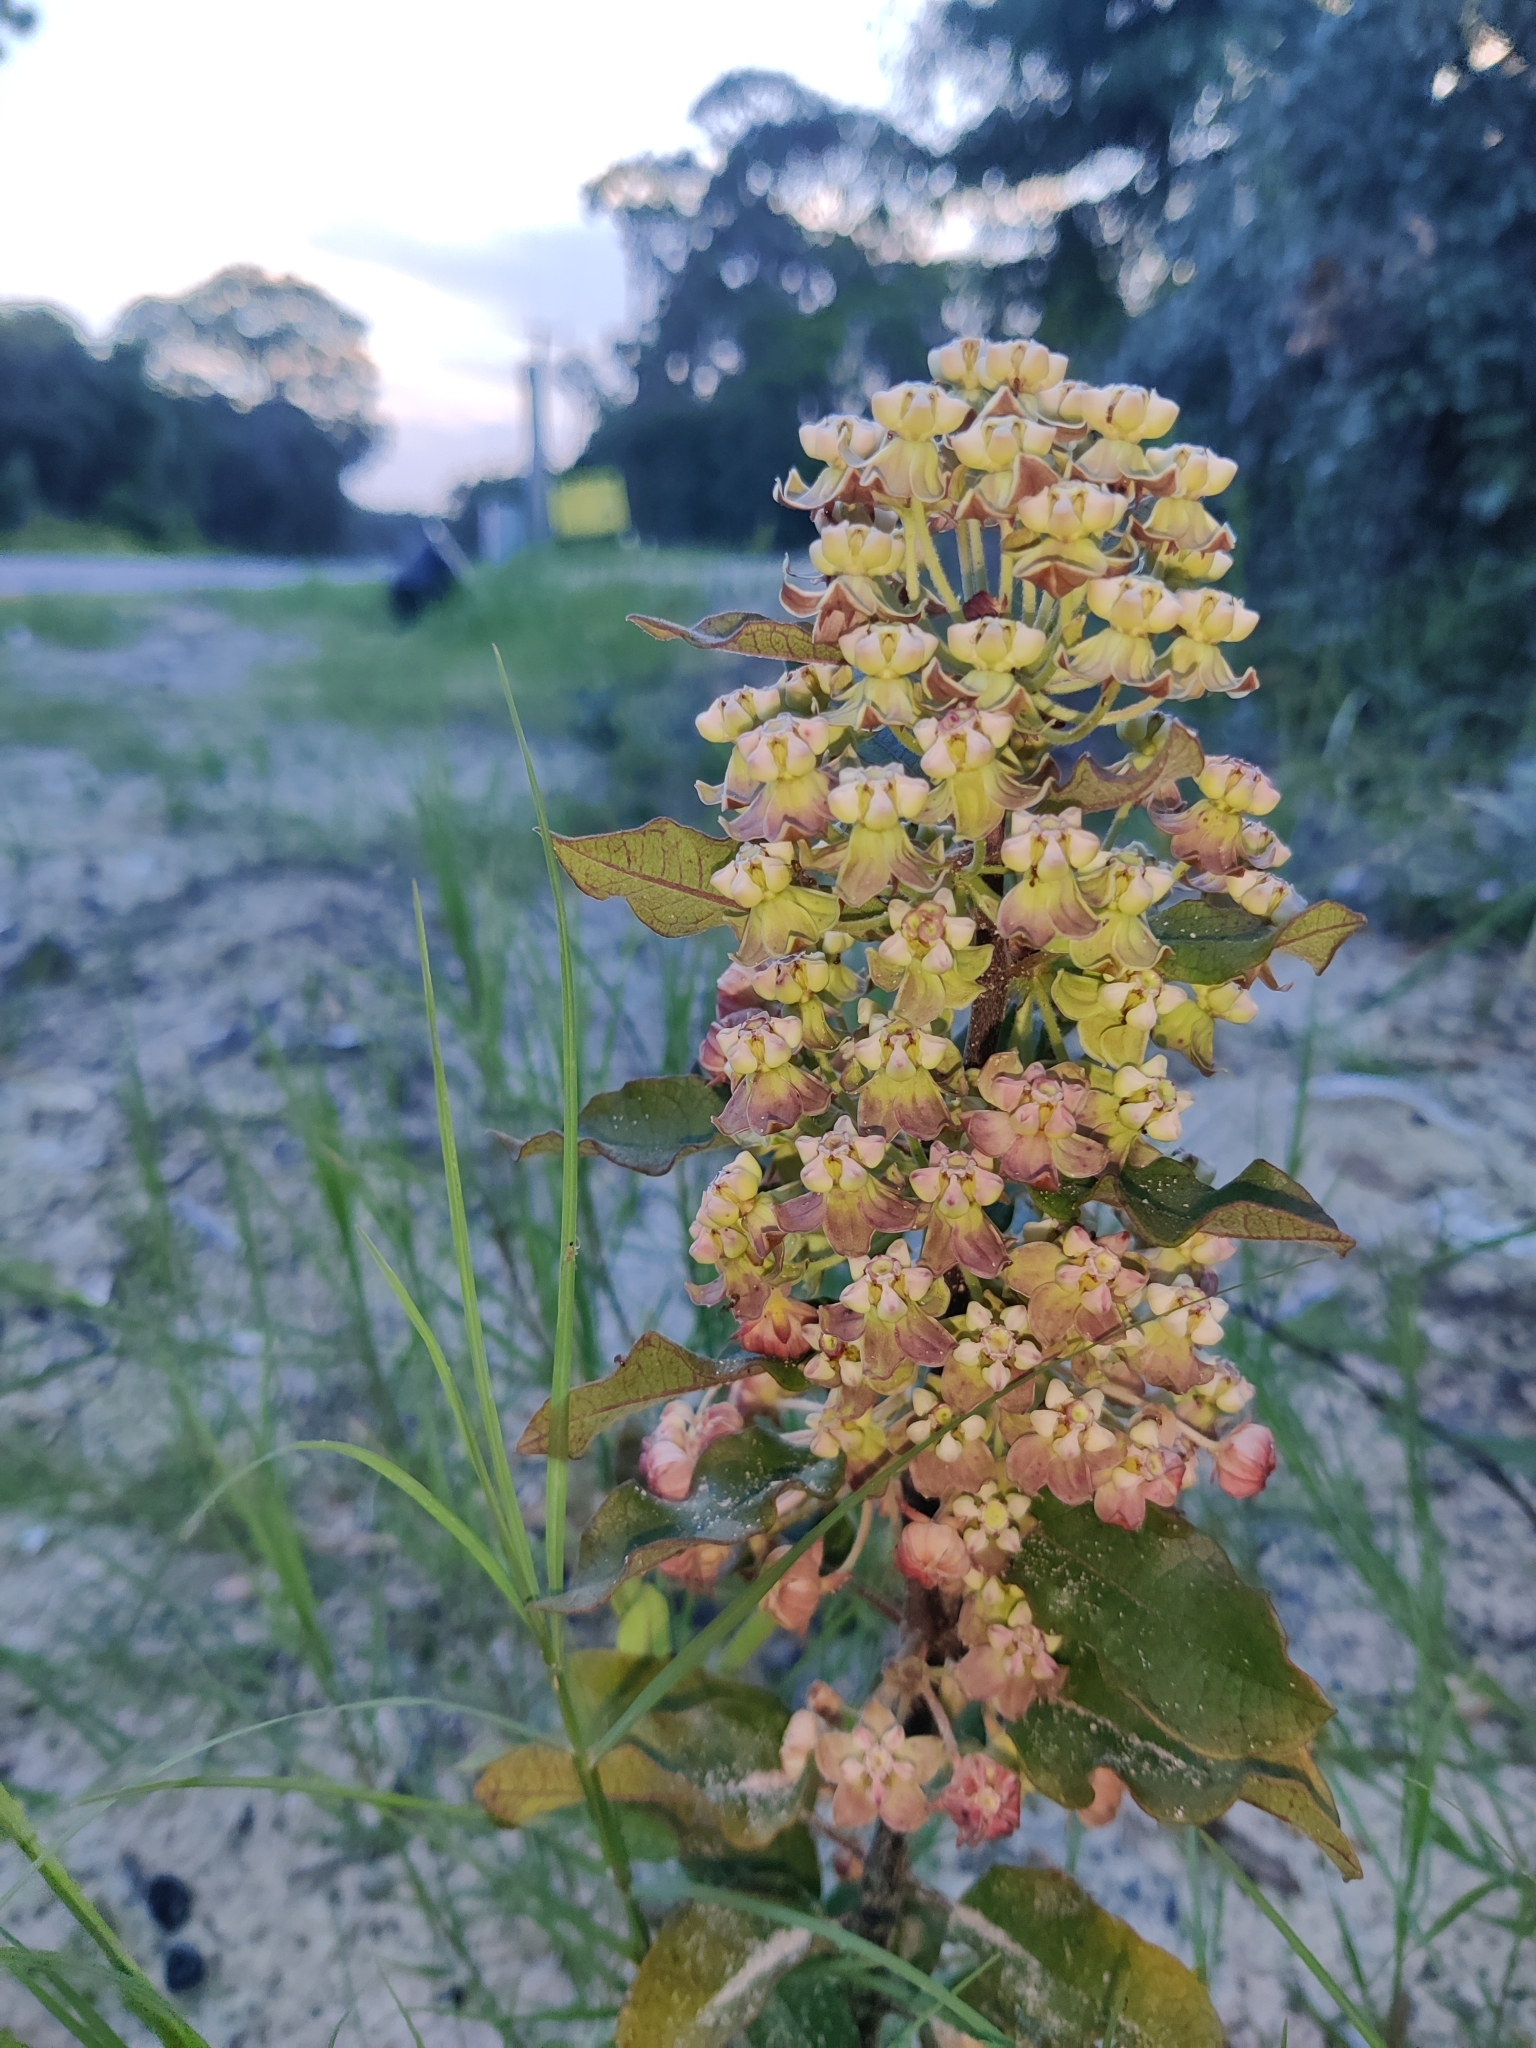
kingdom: Plantae
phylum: Tracheophyta
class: Magnoliopsida
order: Gentianales
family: Apocynaceae
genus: Asclepias
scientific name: Asclepias tomentosa
